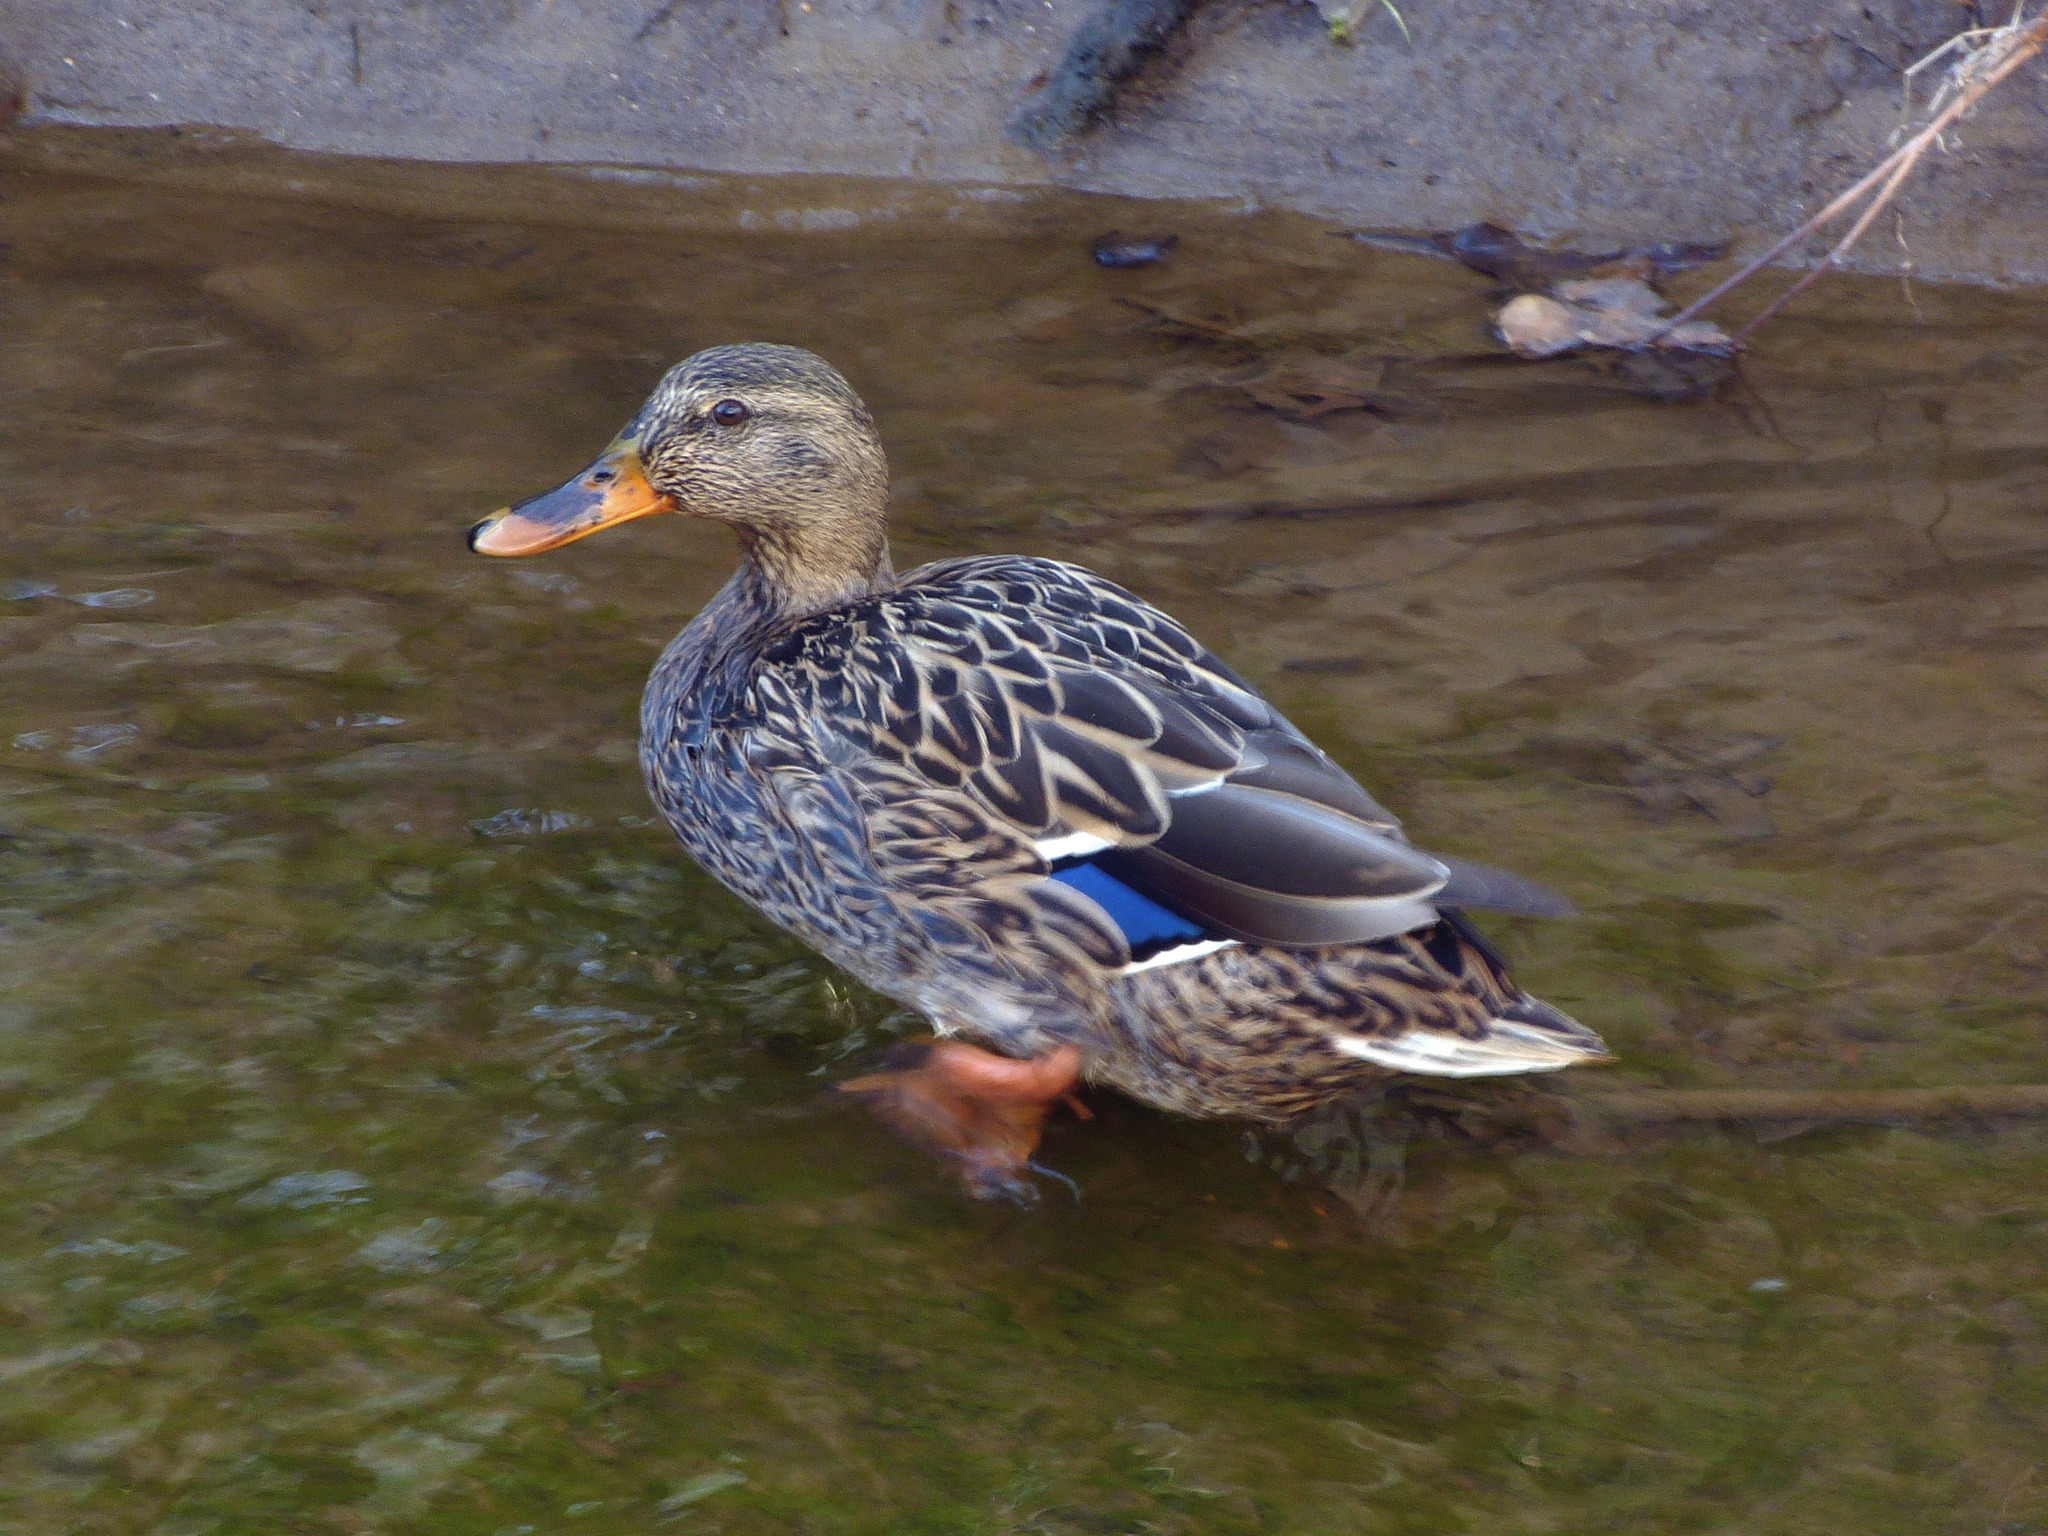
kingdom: Animalia
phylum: Chordata
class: Aves
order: Anseriformes
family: Anatidae
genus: Anas
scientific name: Anas platyrhynchos
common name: Mallard
